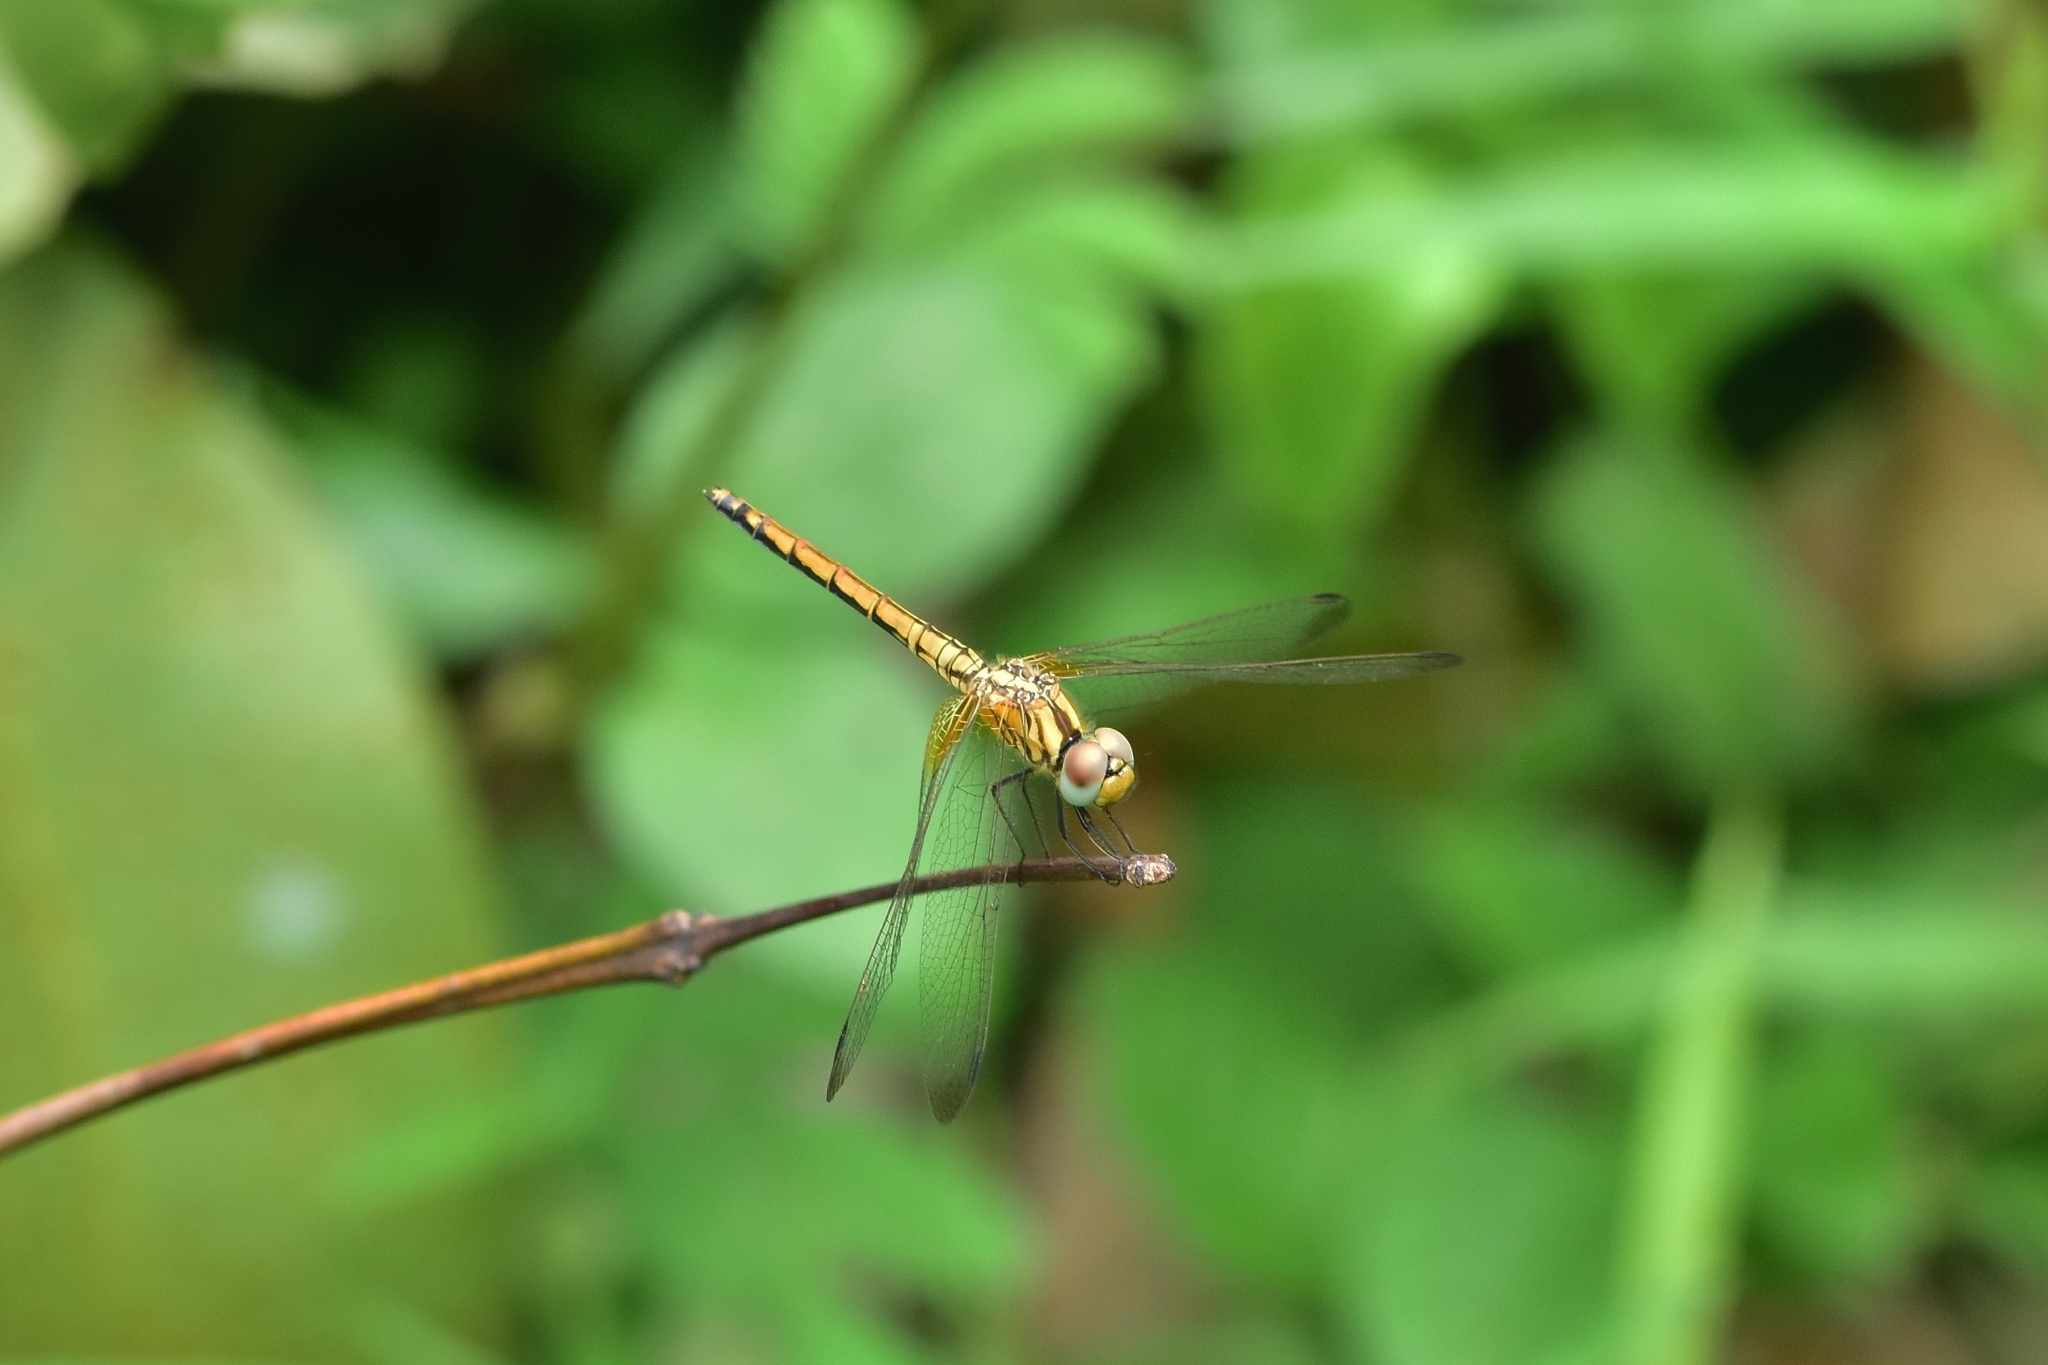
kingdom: Animalia
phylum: Arthropoda
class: Insecta
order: Odonata
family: Libellulidae
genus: Trithemis
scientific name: Trithemis aurora
